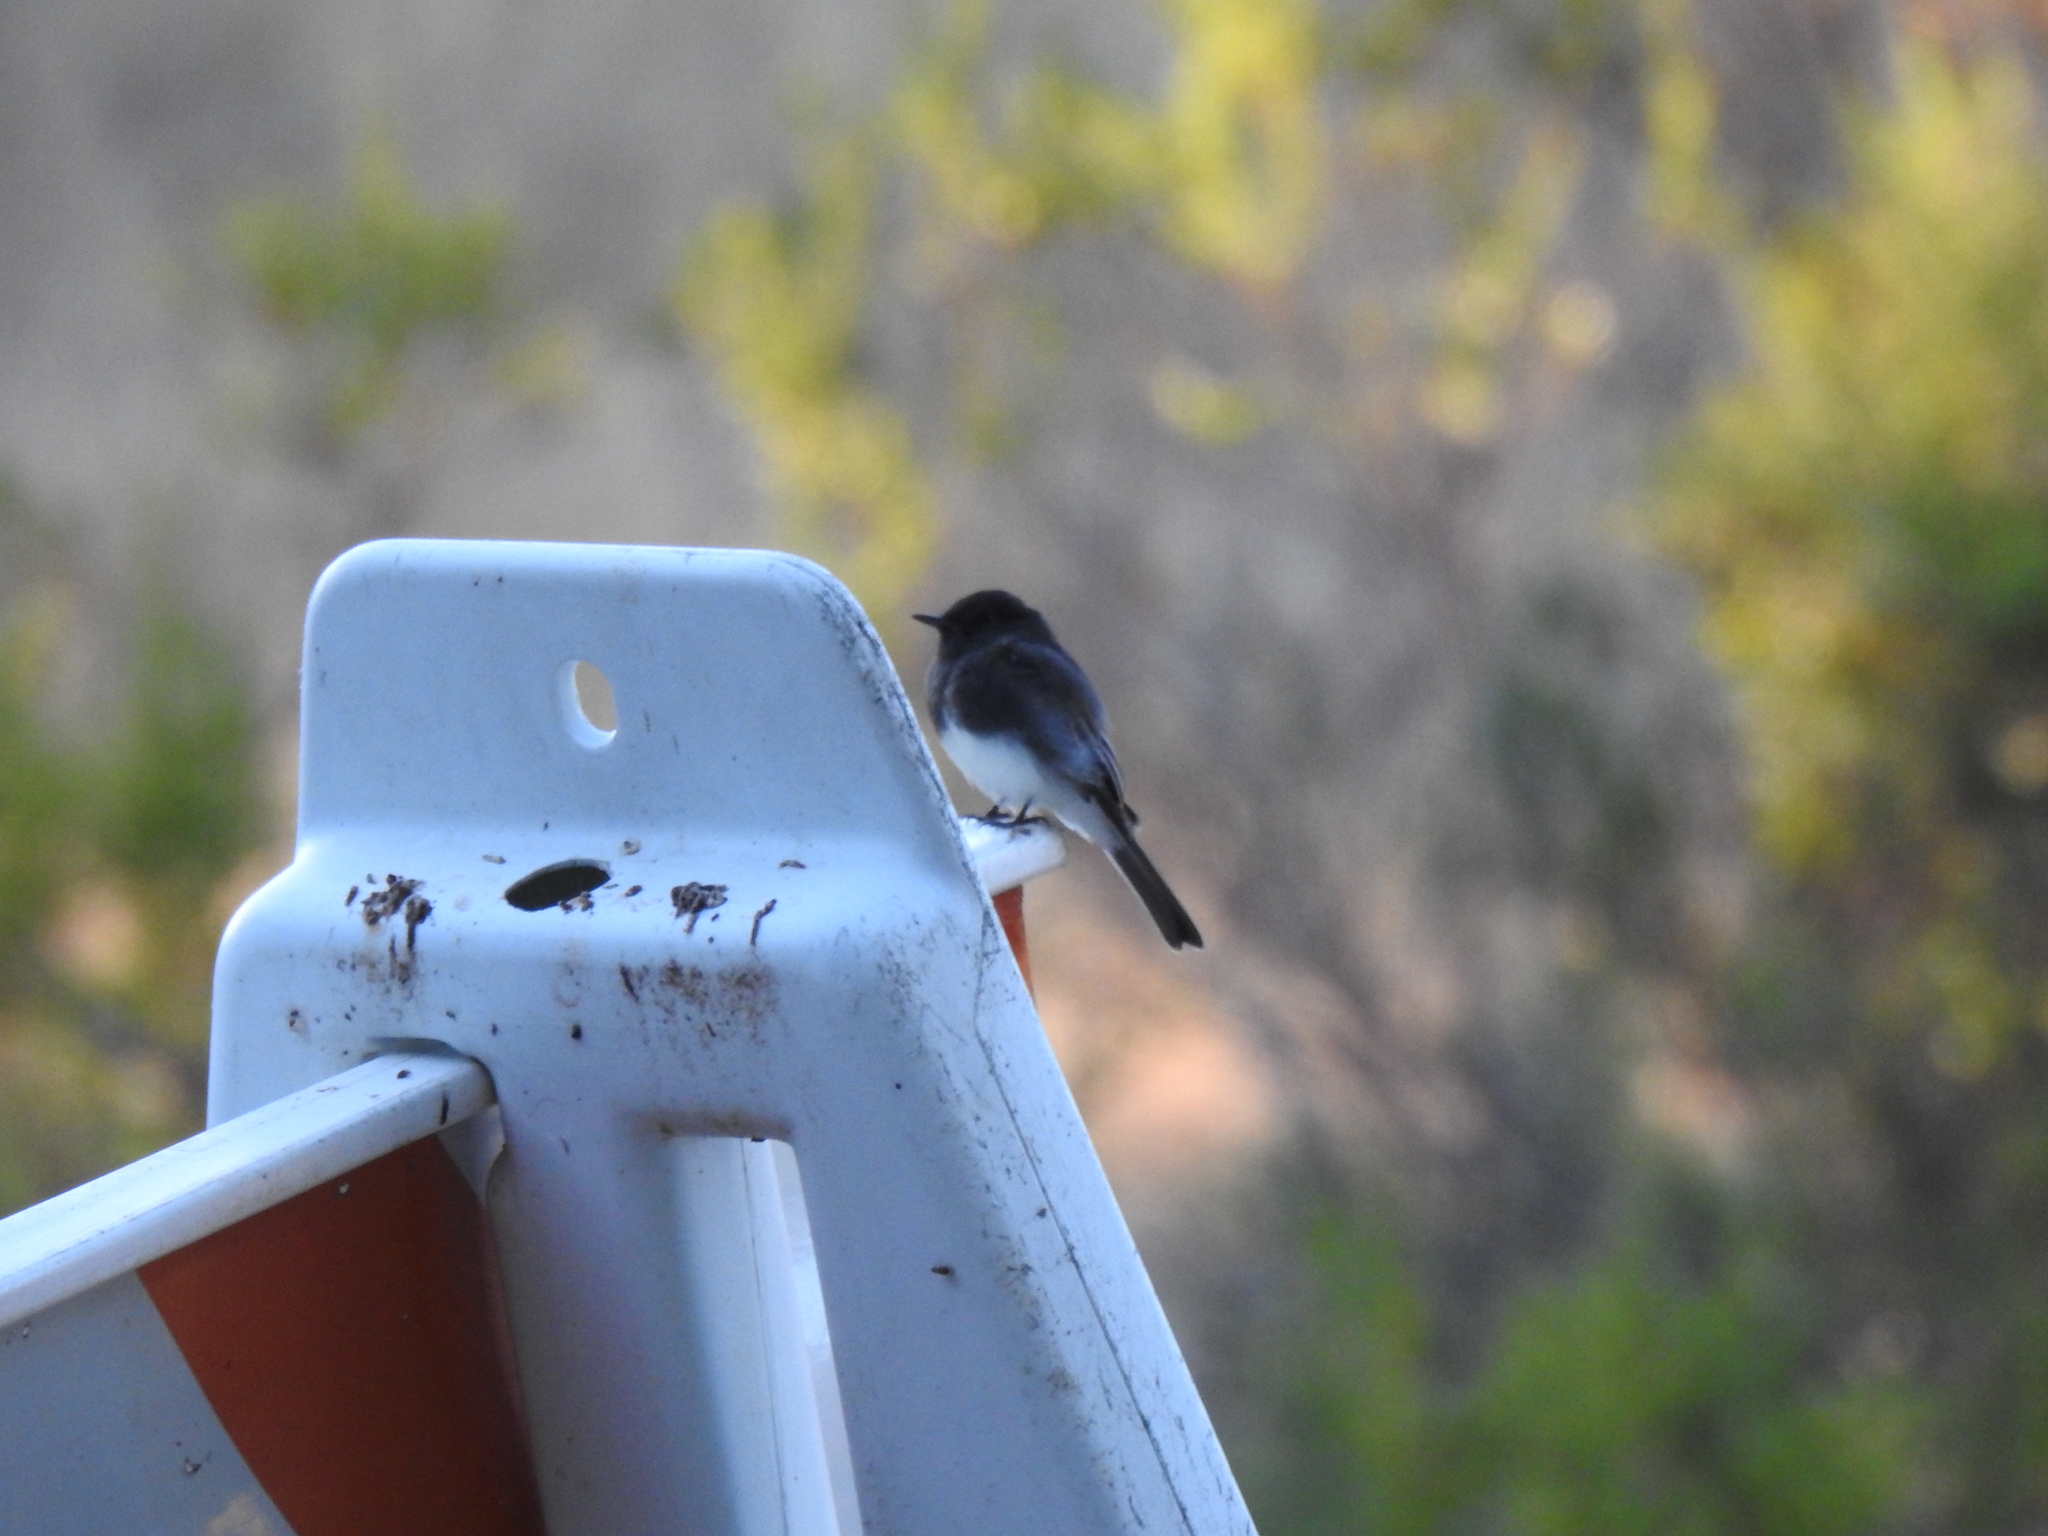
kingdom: Animalia
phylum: Chordata
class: Aves
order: Passeriformes
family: Tyrannidae
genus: Sayornis
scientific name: Sayornis nigricans
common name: Black phoebe
